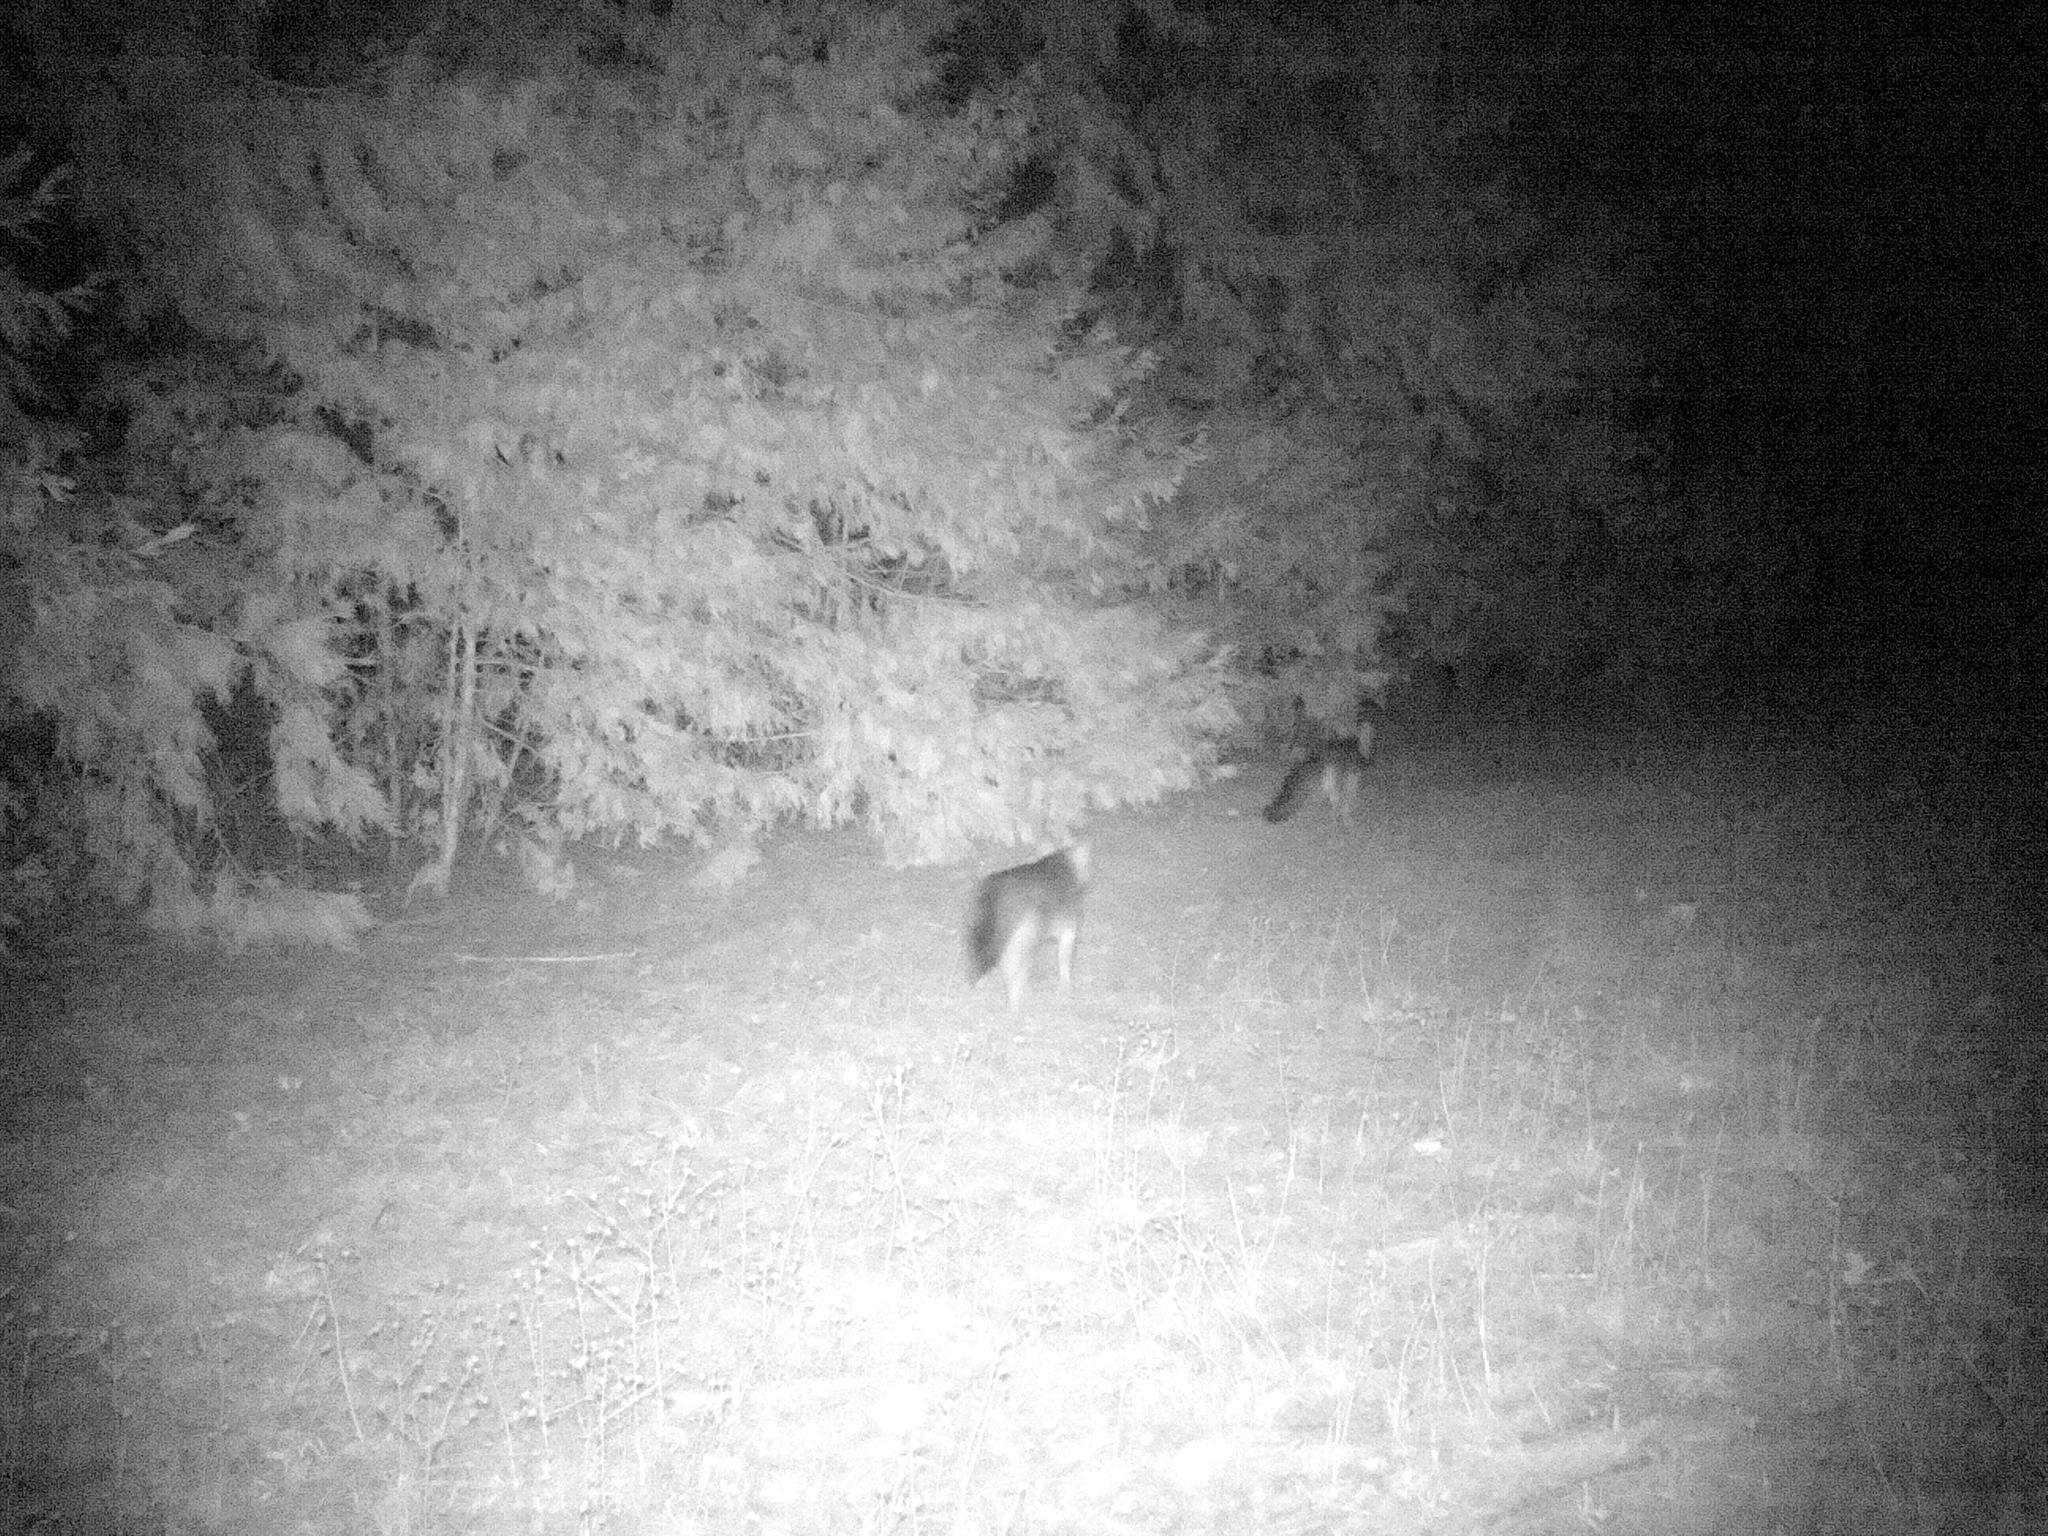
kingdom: Animalia
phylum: Chordata
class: Mammalia
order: Carnivora
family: Canidae
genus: Urocyon
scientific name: Urocyon cinereoargenteus
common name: Gray fox
